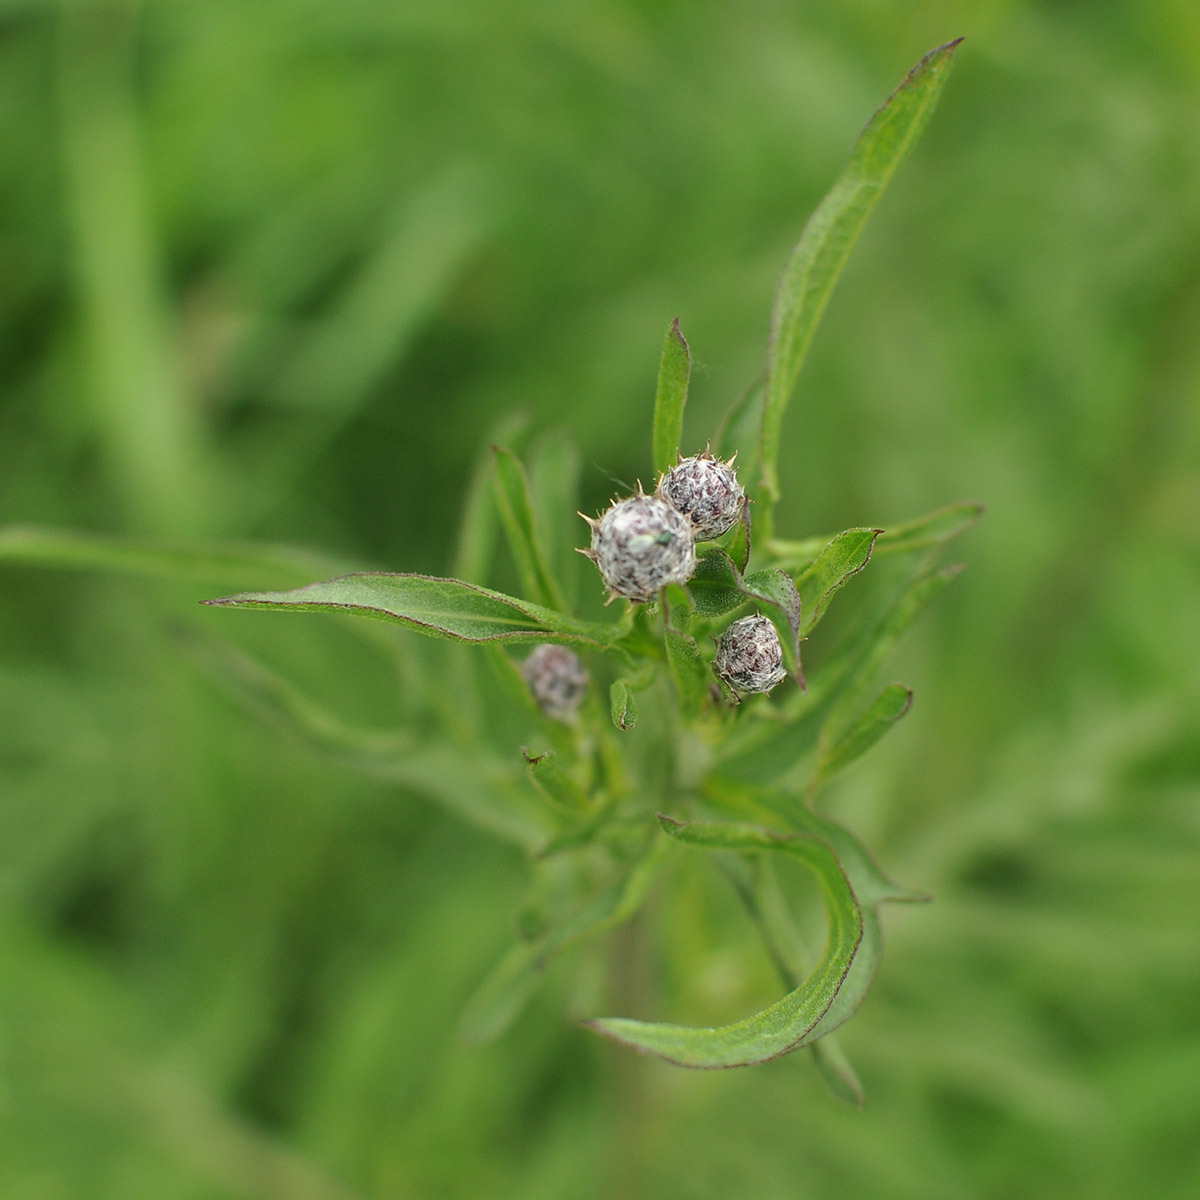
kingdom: Plantae
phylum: Tracheophyta
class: Magnoliopsida
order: Asterales
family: Asteraceae
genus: Centaurea
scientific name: Centaurea scabiosa
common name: Greater knapweed
